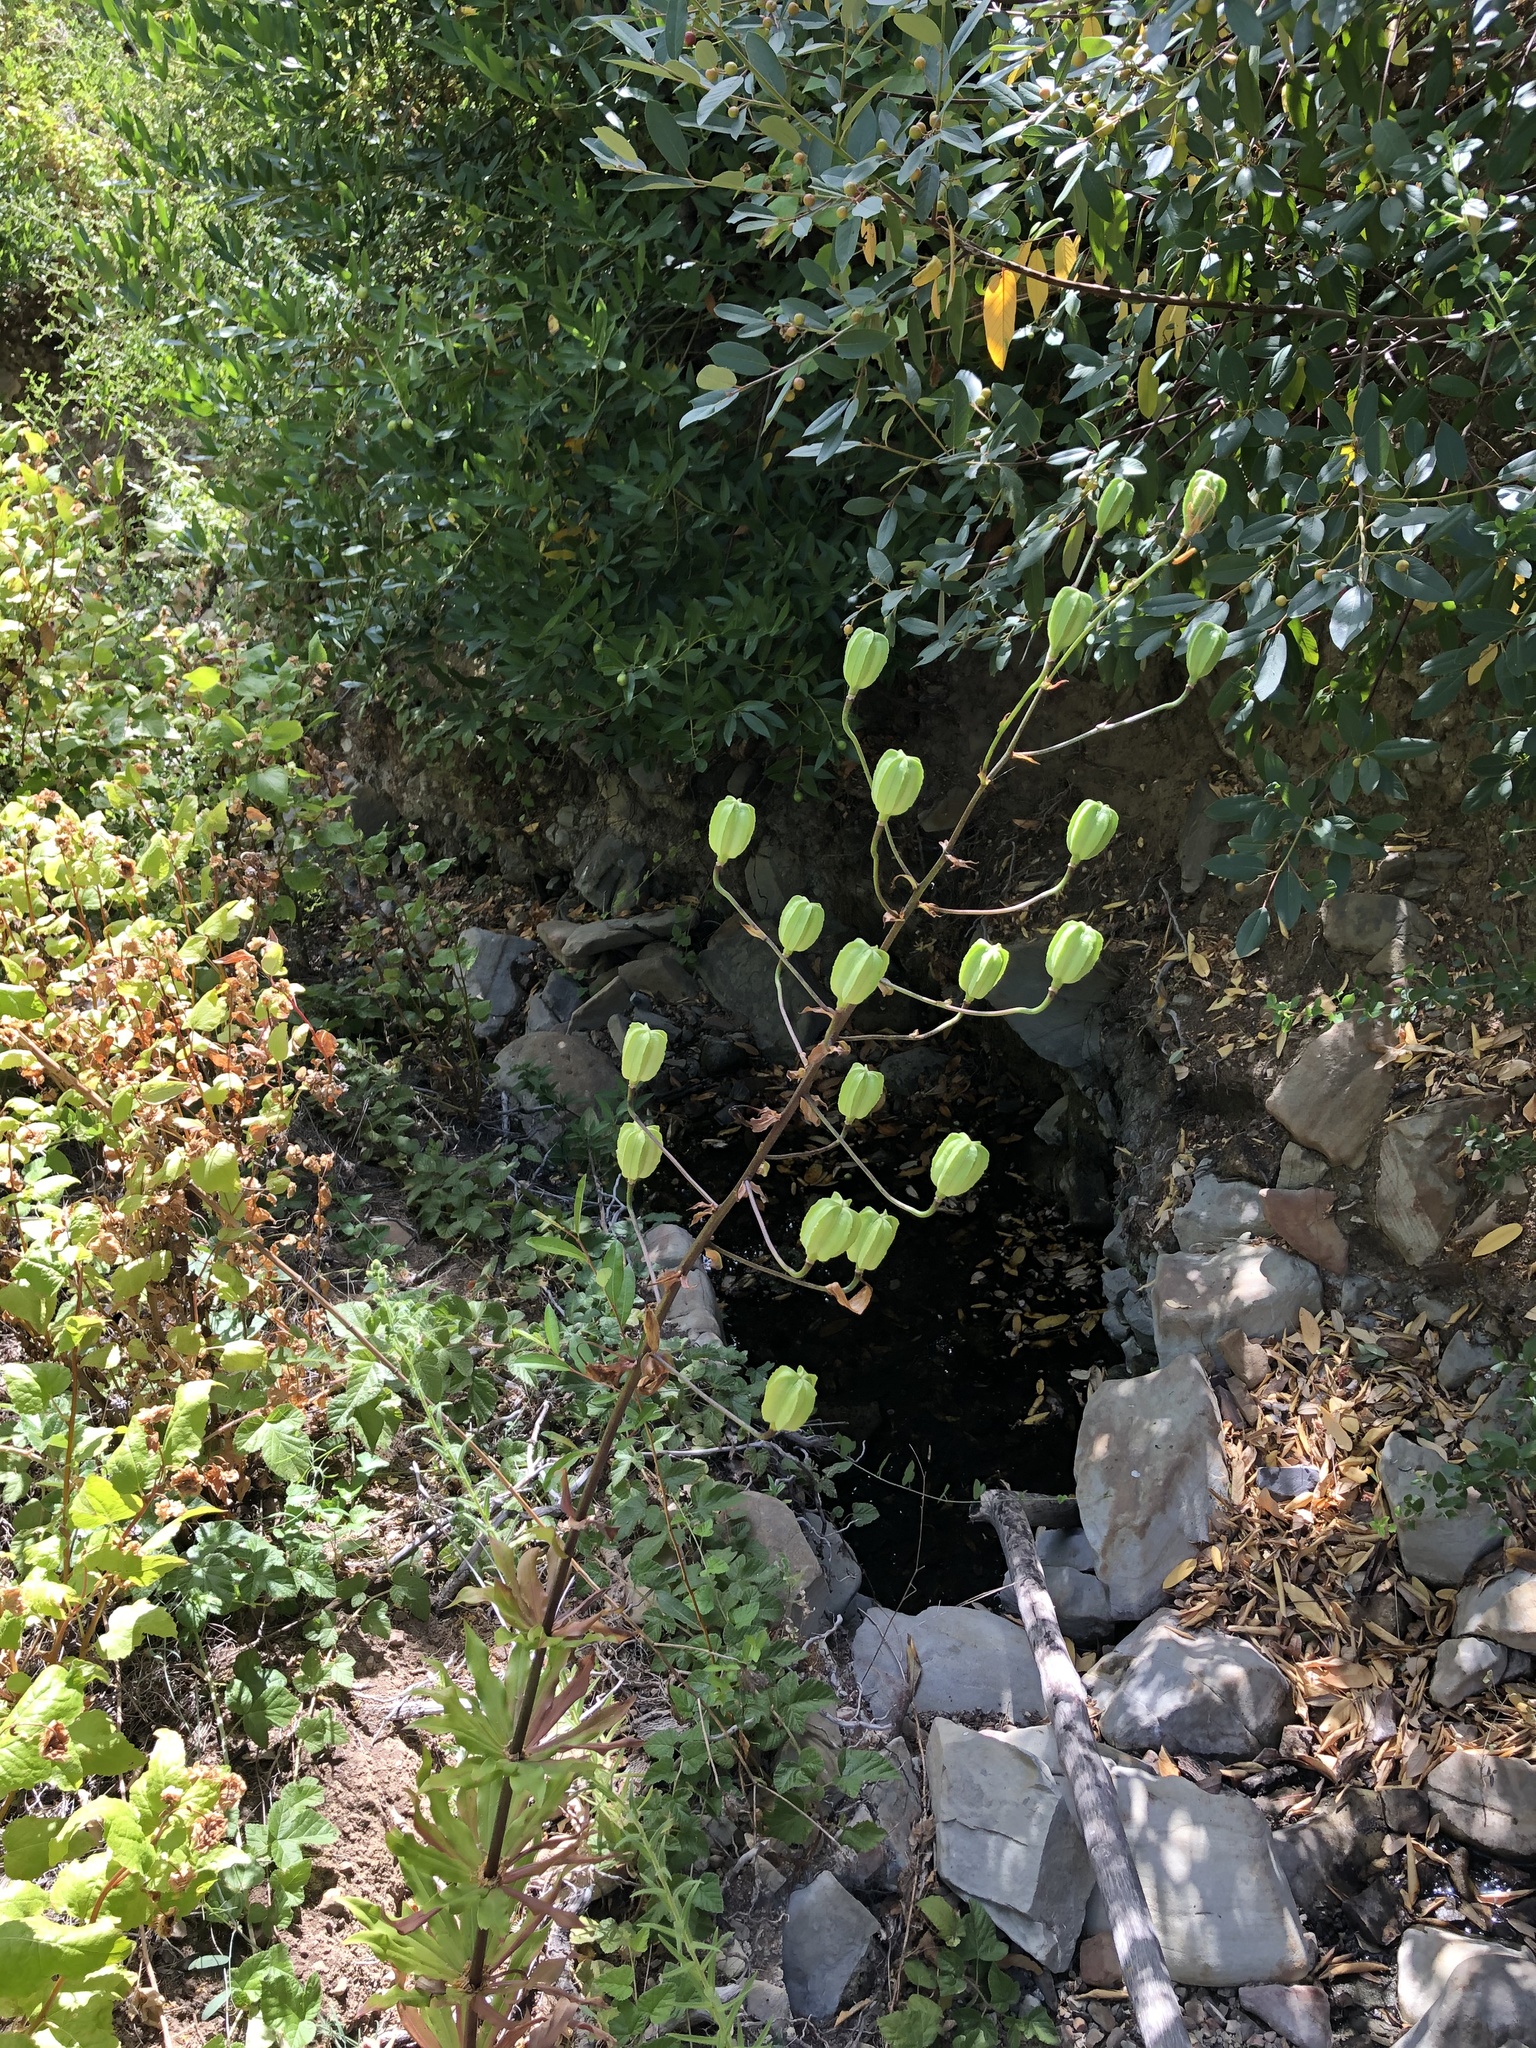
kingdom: Plantae
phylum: Tracheophyta
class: Liliopsida
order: Liliales
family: Liliaceae
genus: Lilium
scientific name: Lilium humboldtii
